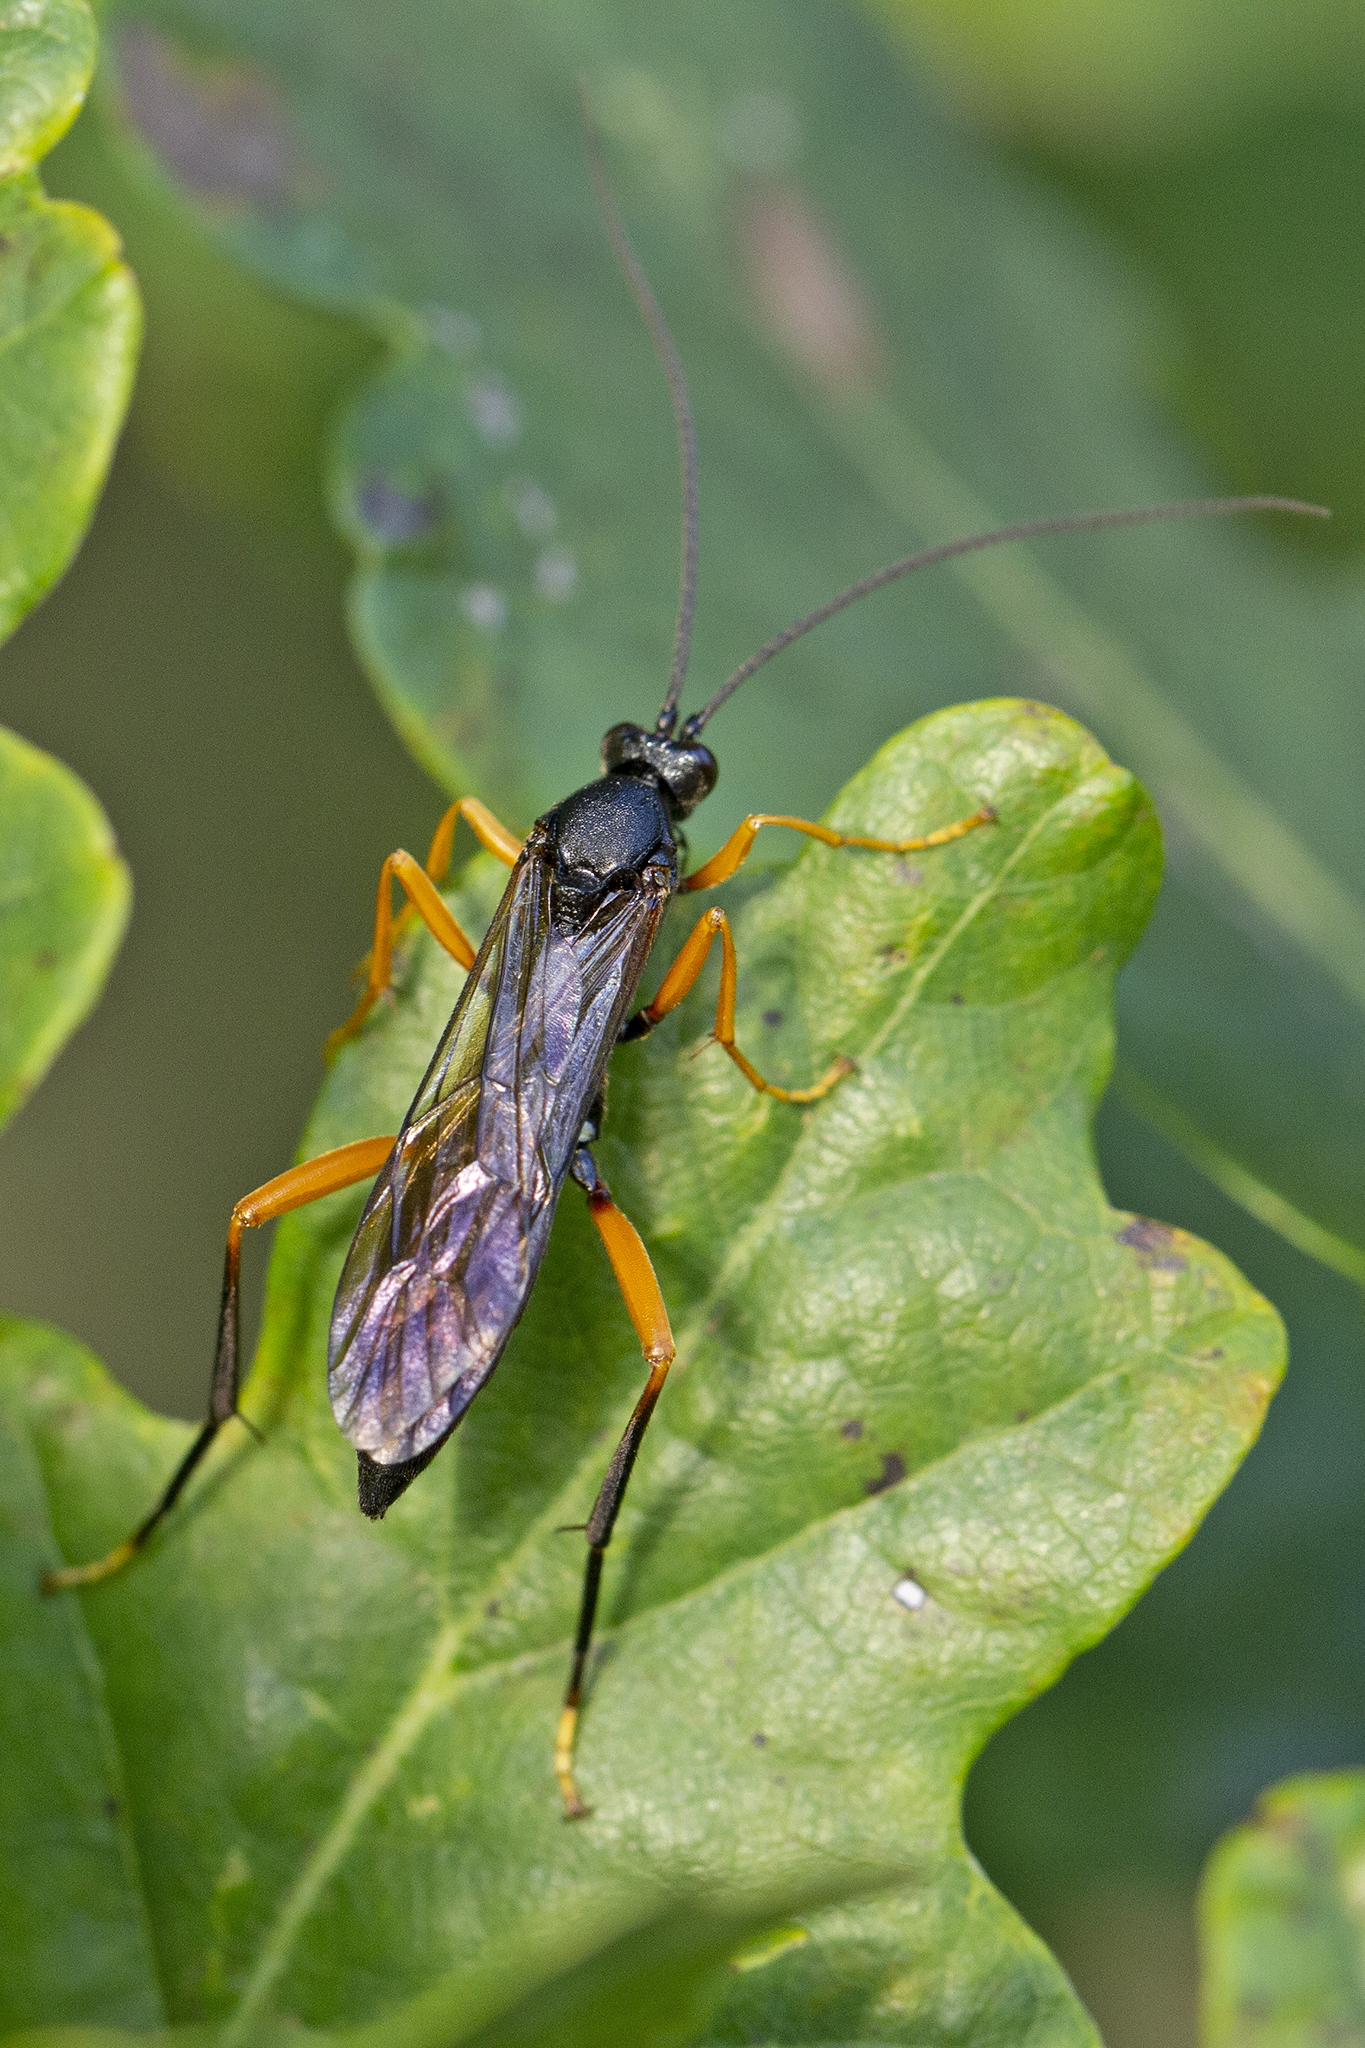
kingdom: Animalia
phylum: Arthropoda
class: Insecta
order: Hymenoptera
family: Ichneumonidae
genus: Hoplismenus
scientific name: Hoplismenus terrificus
